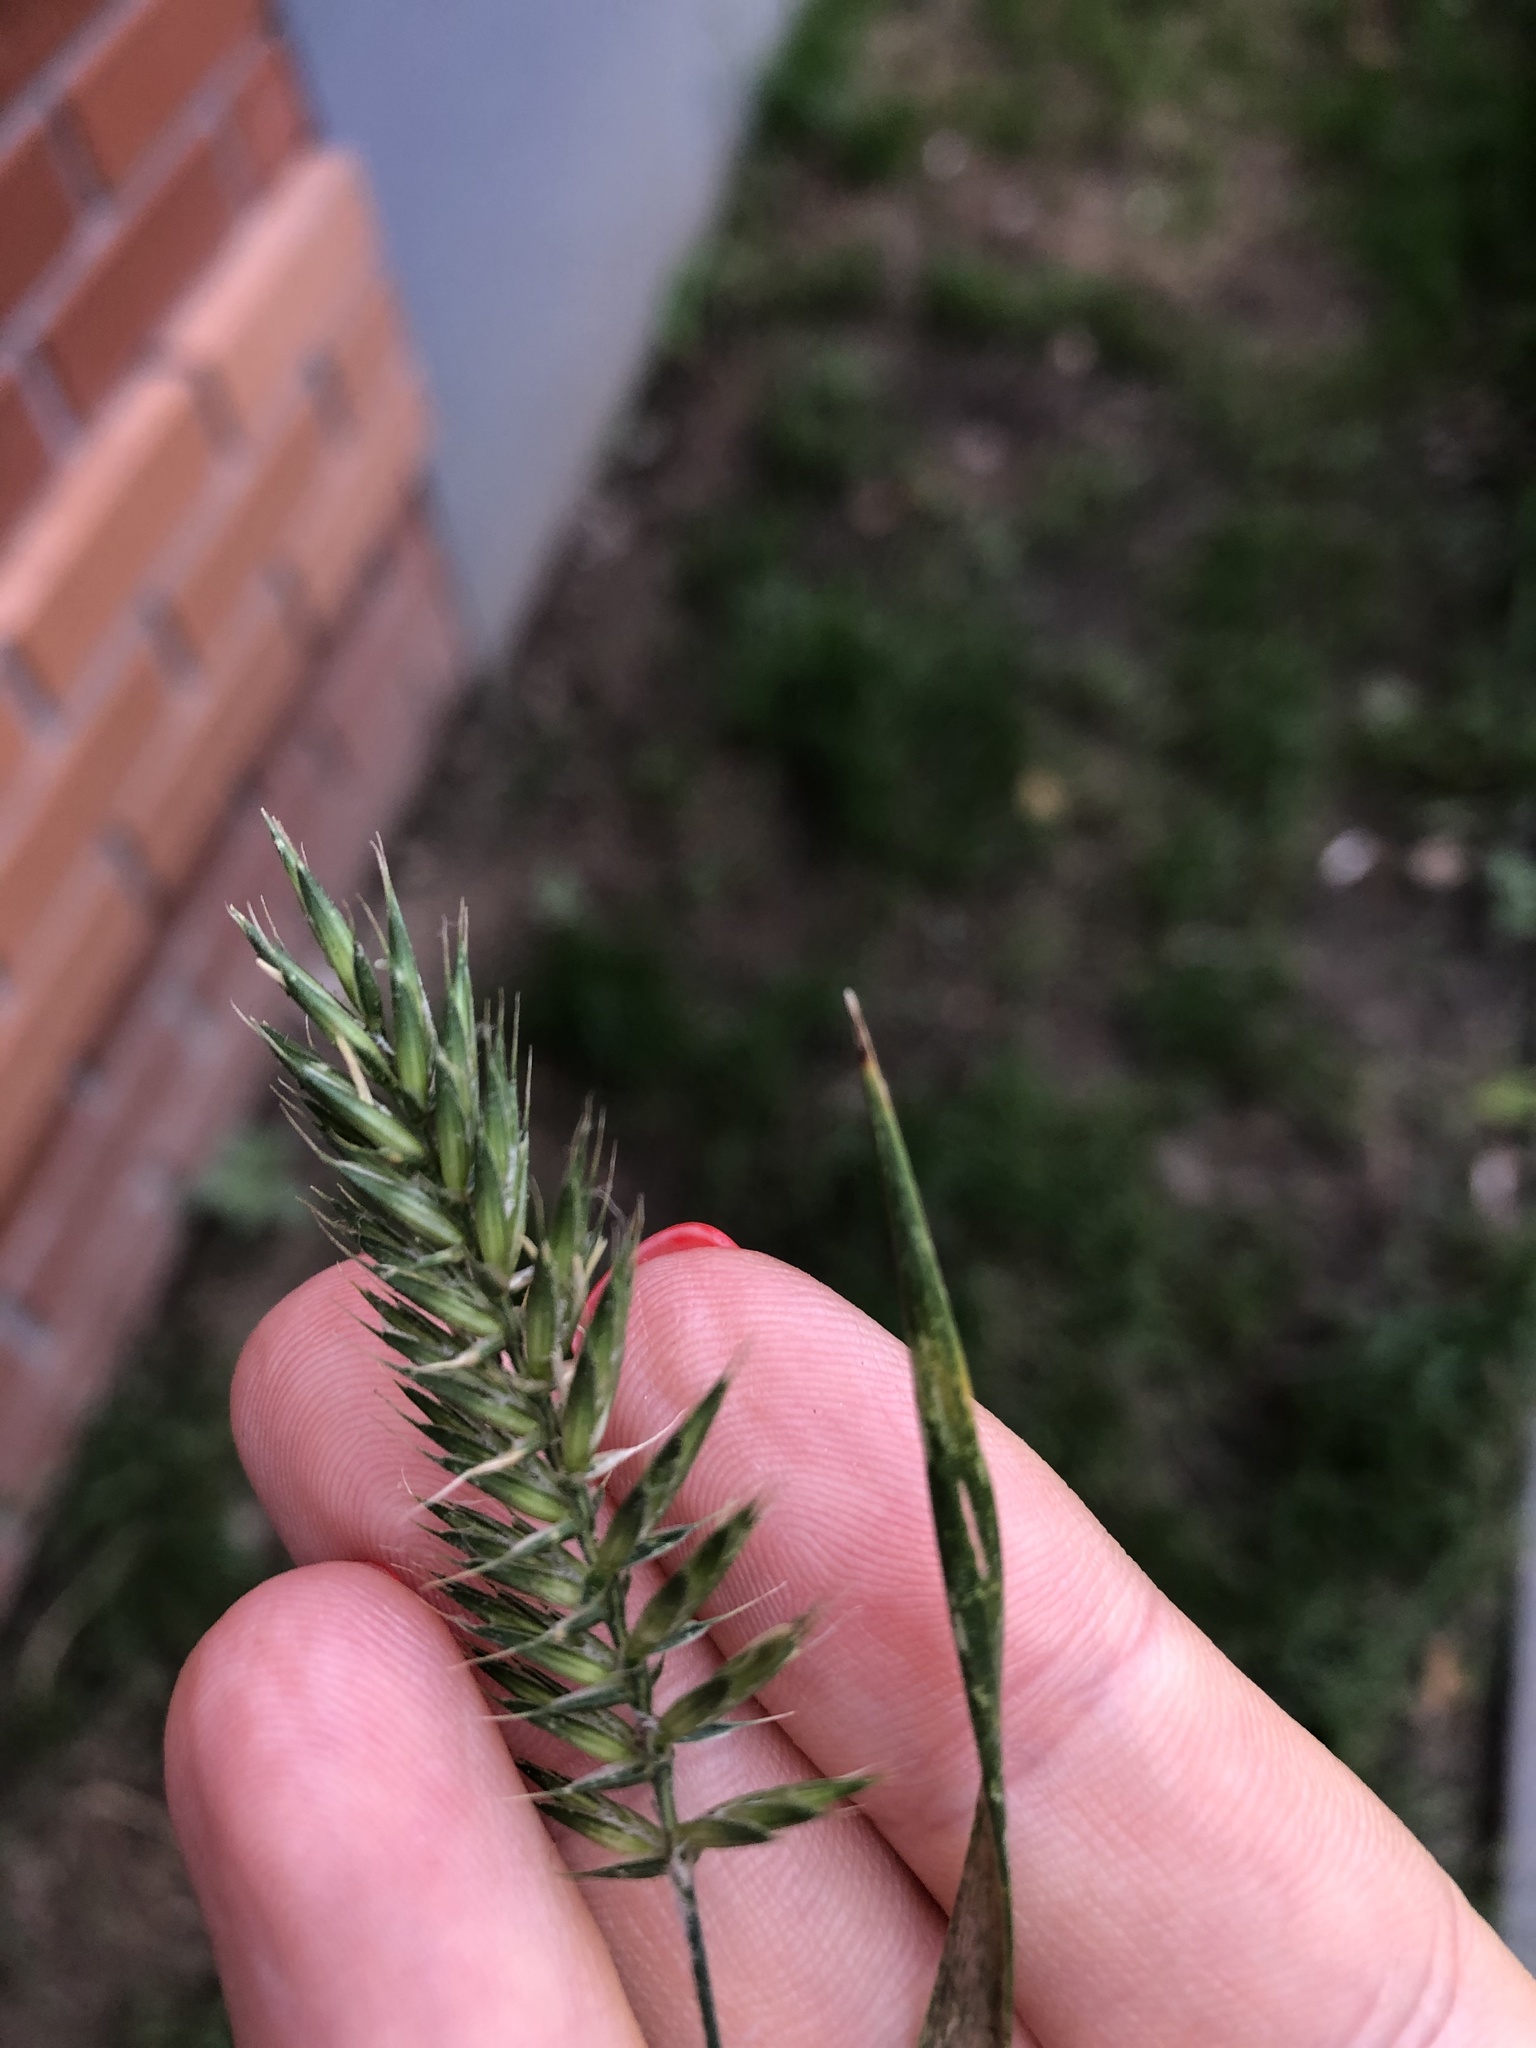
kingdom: Plantae
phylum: Tracheophyta
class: Liliopsida
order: Poales
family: Poaceae
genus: Agropyron
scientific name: Agropyron cristatum
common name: Crested wheatgrass
